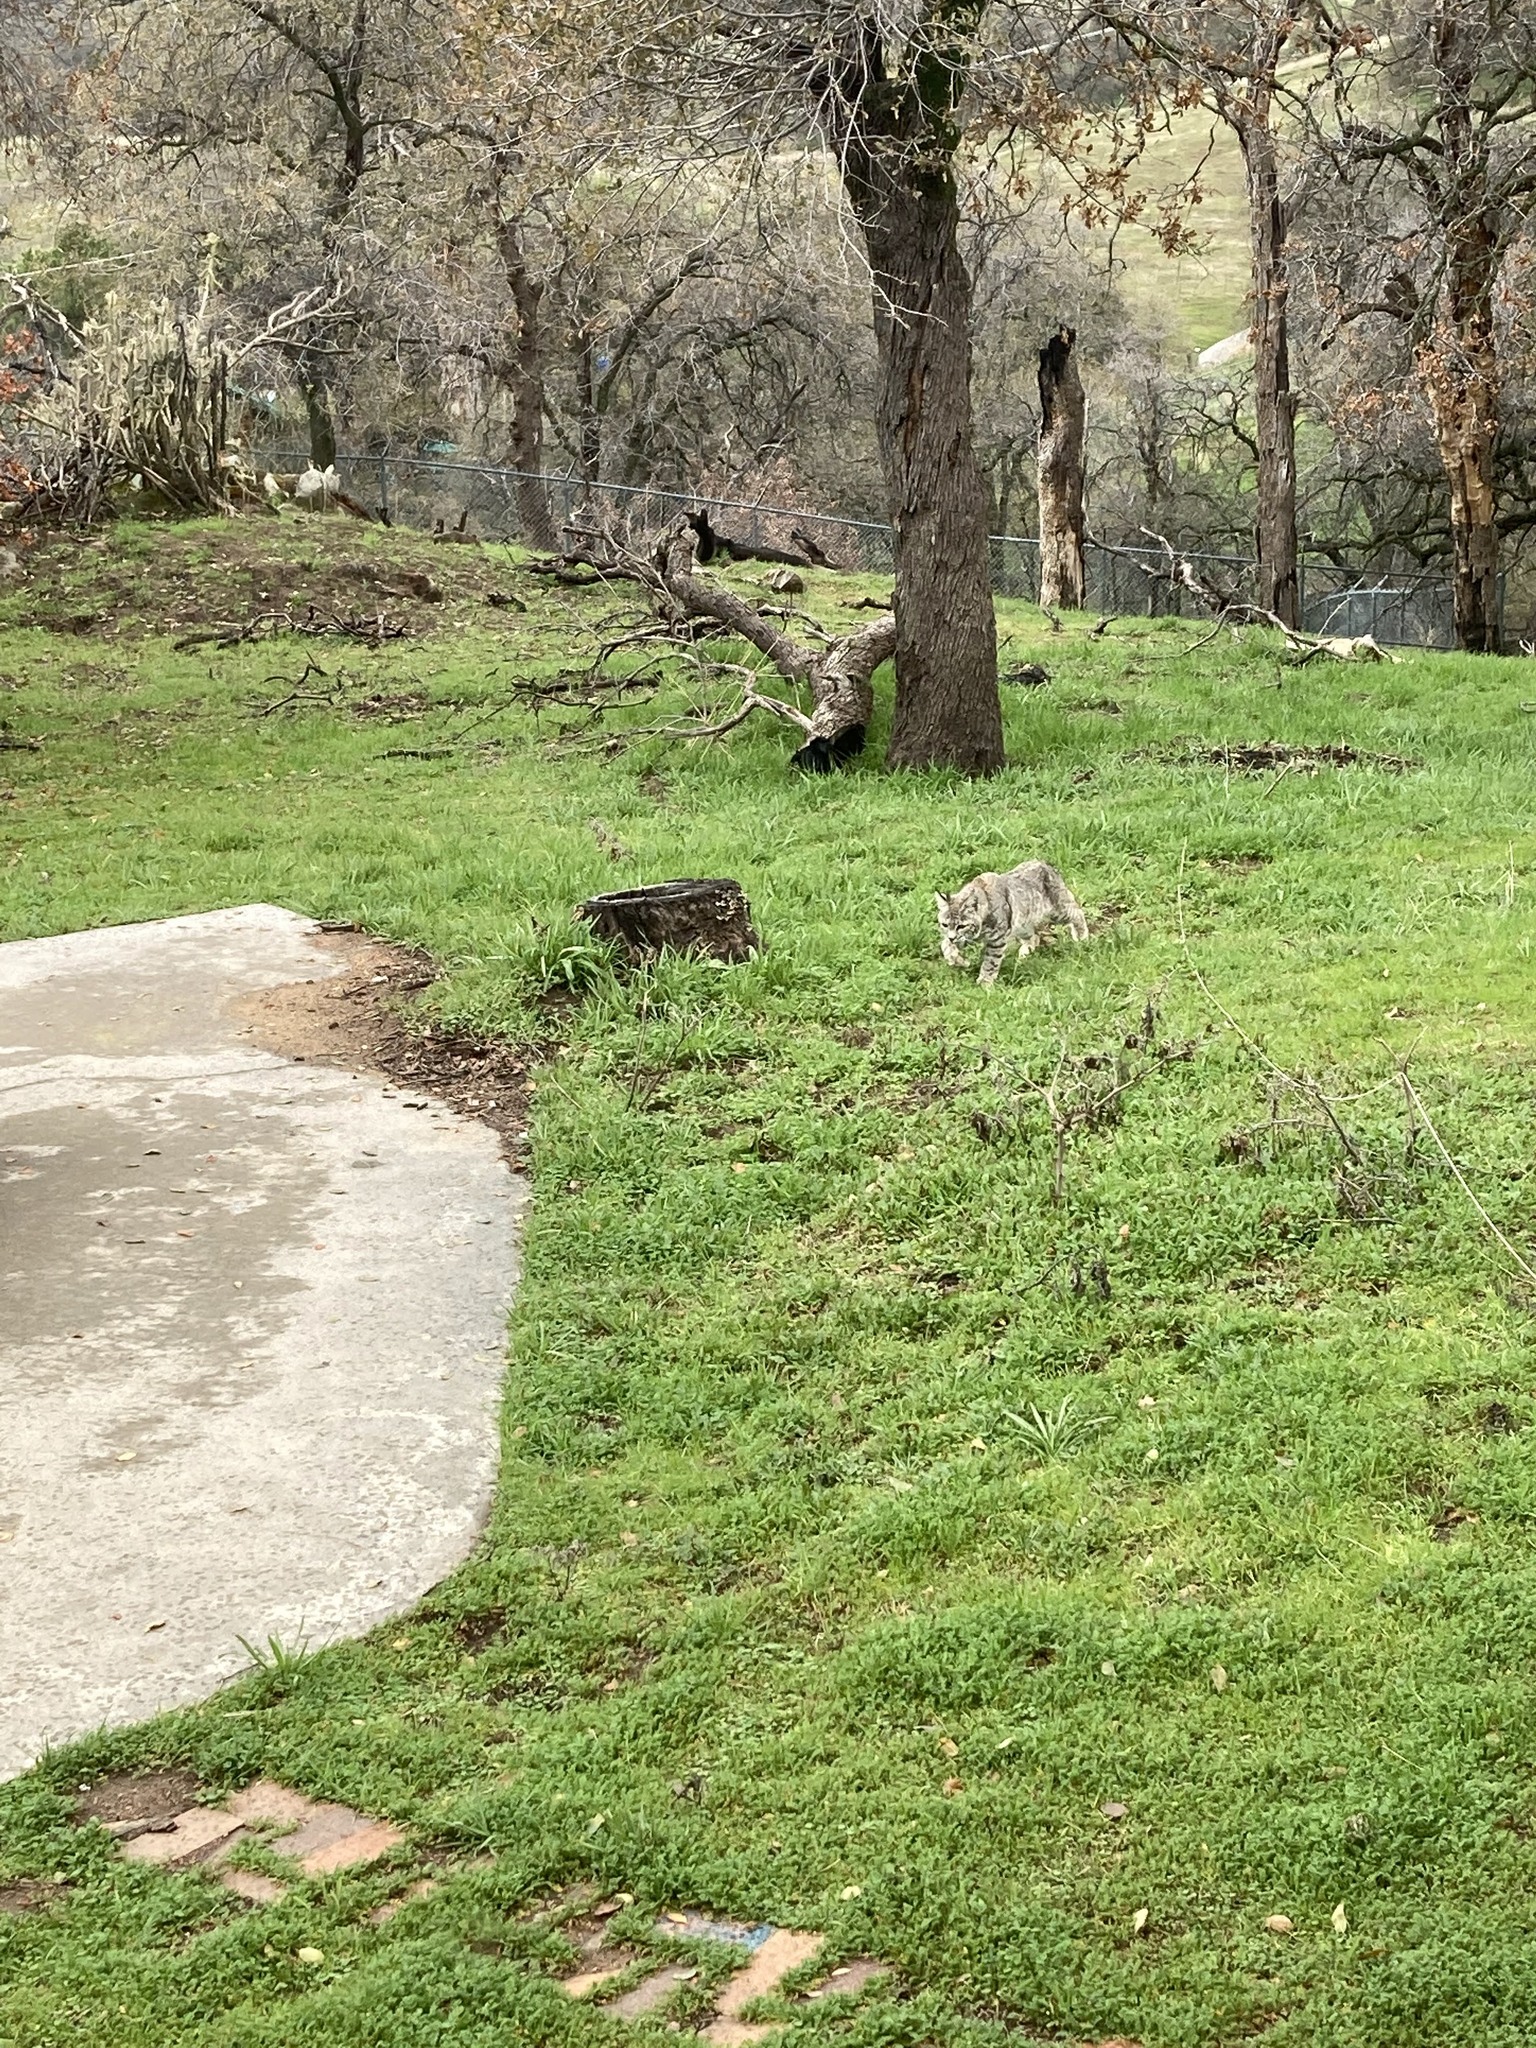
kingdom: Animalia
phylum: Chordata
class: Mammalia
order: Carnivora
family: Felidae
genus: Lynx
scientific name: Lynx rufus
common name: Bobcat
